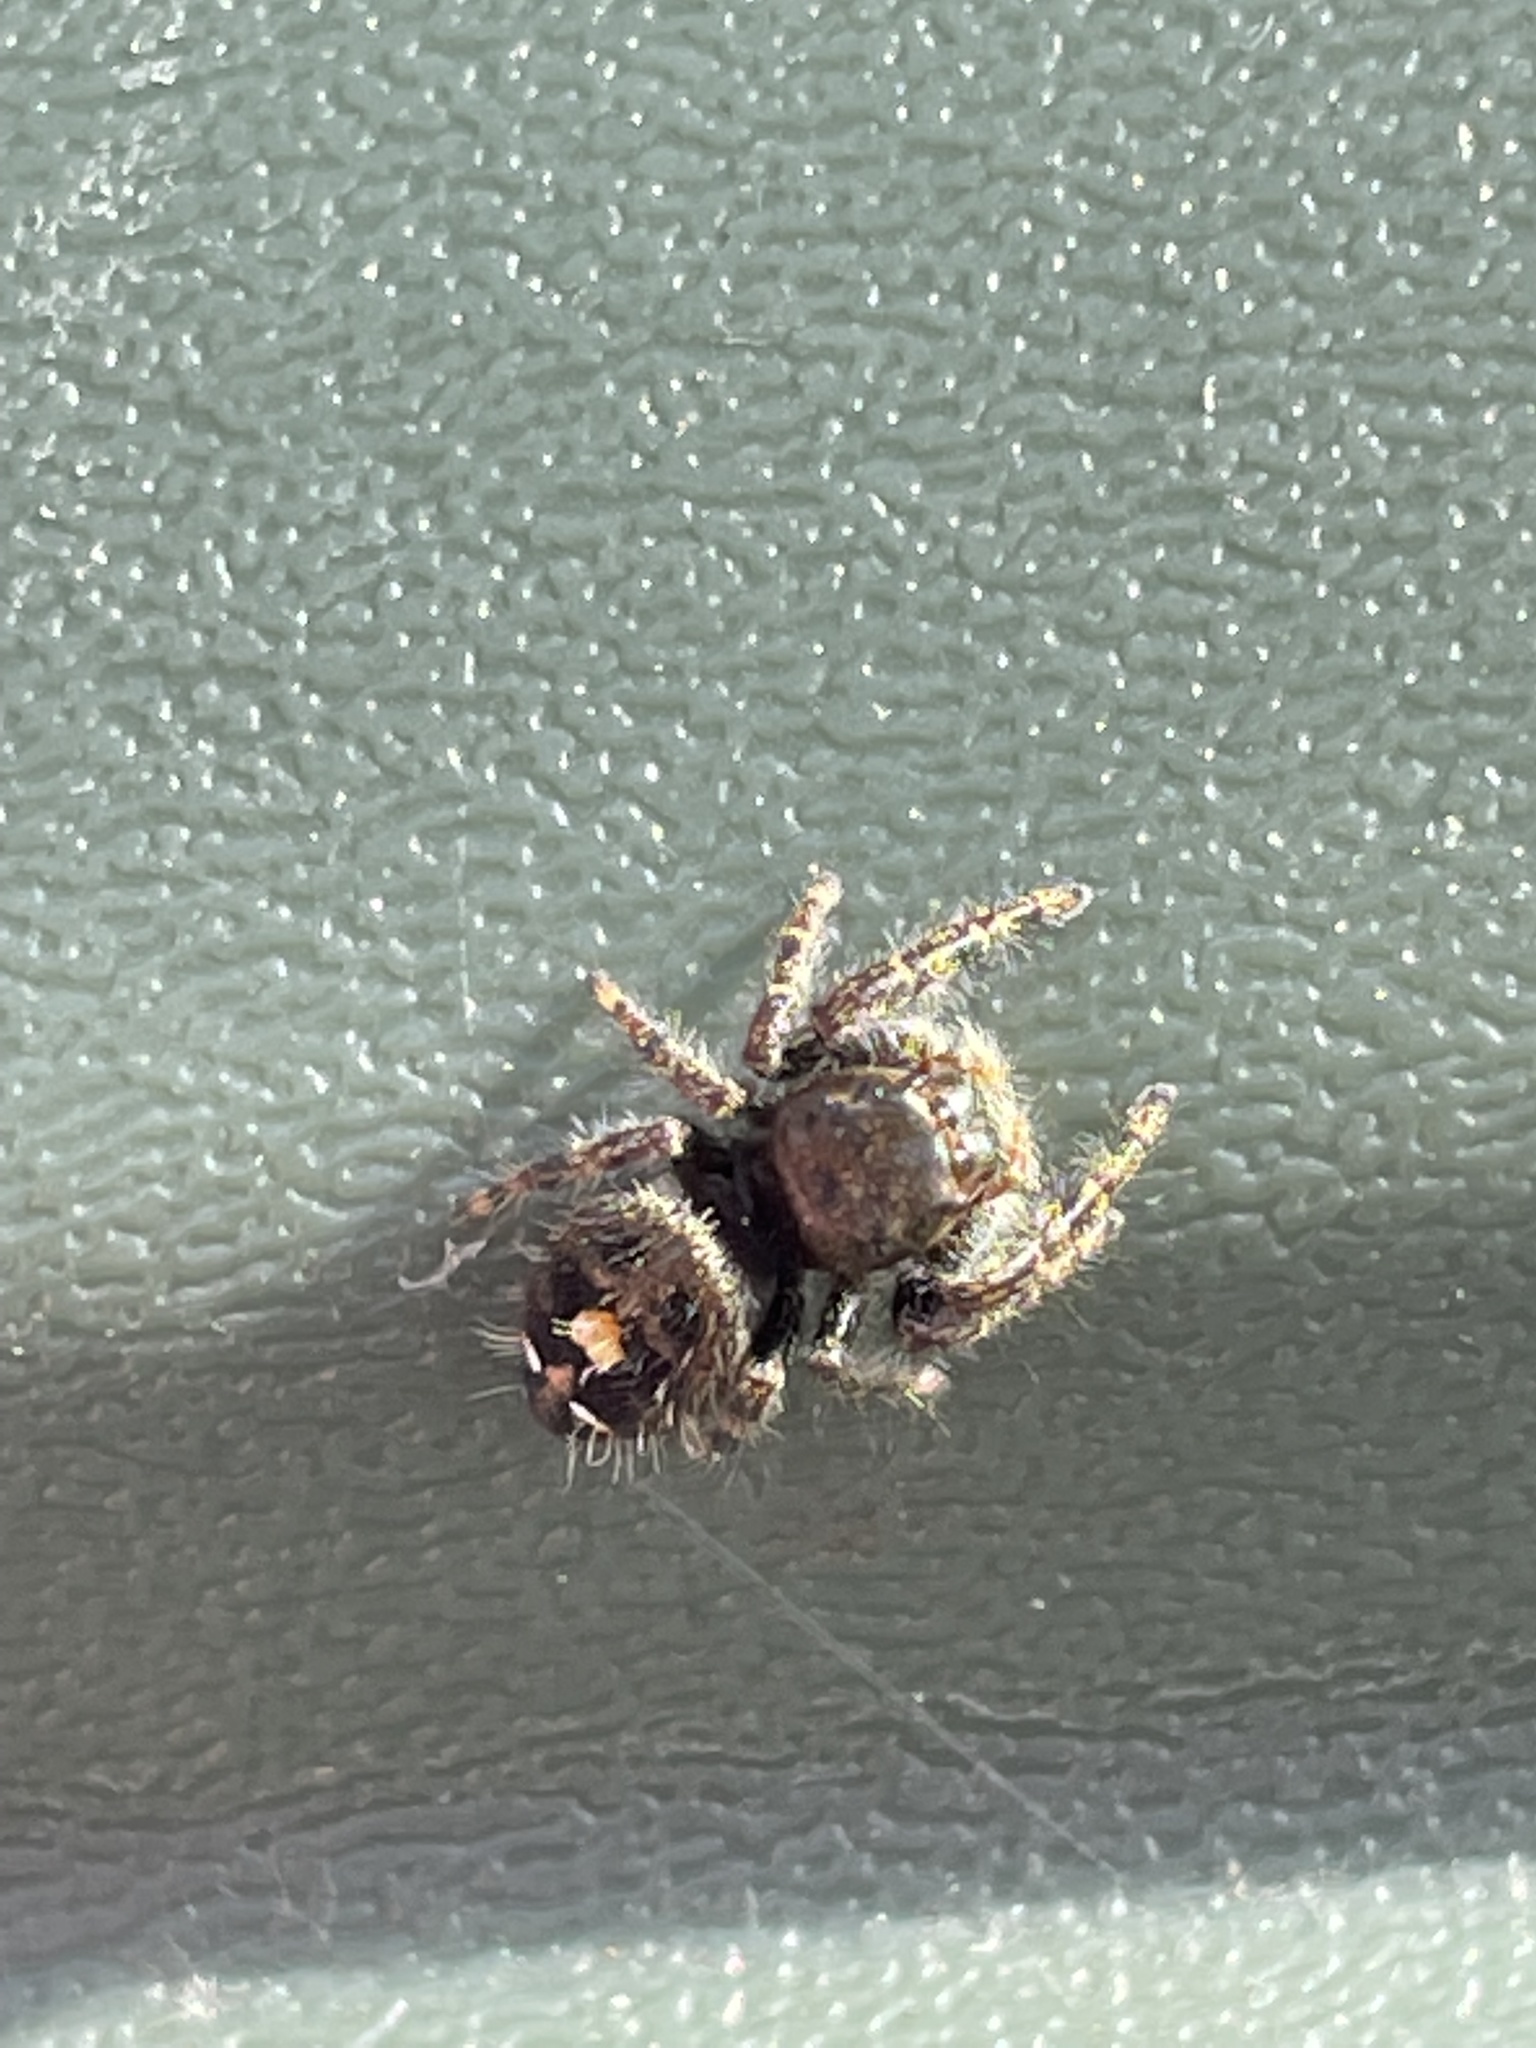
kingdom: Animalia
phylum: Arthropoda
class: Arachnida
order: Araneae
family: Salticidae
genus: Phidippus
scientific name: Phidippus audax
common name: Bold jumper
